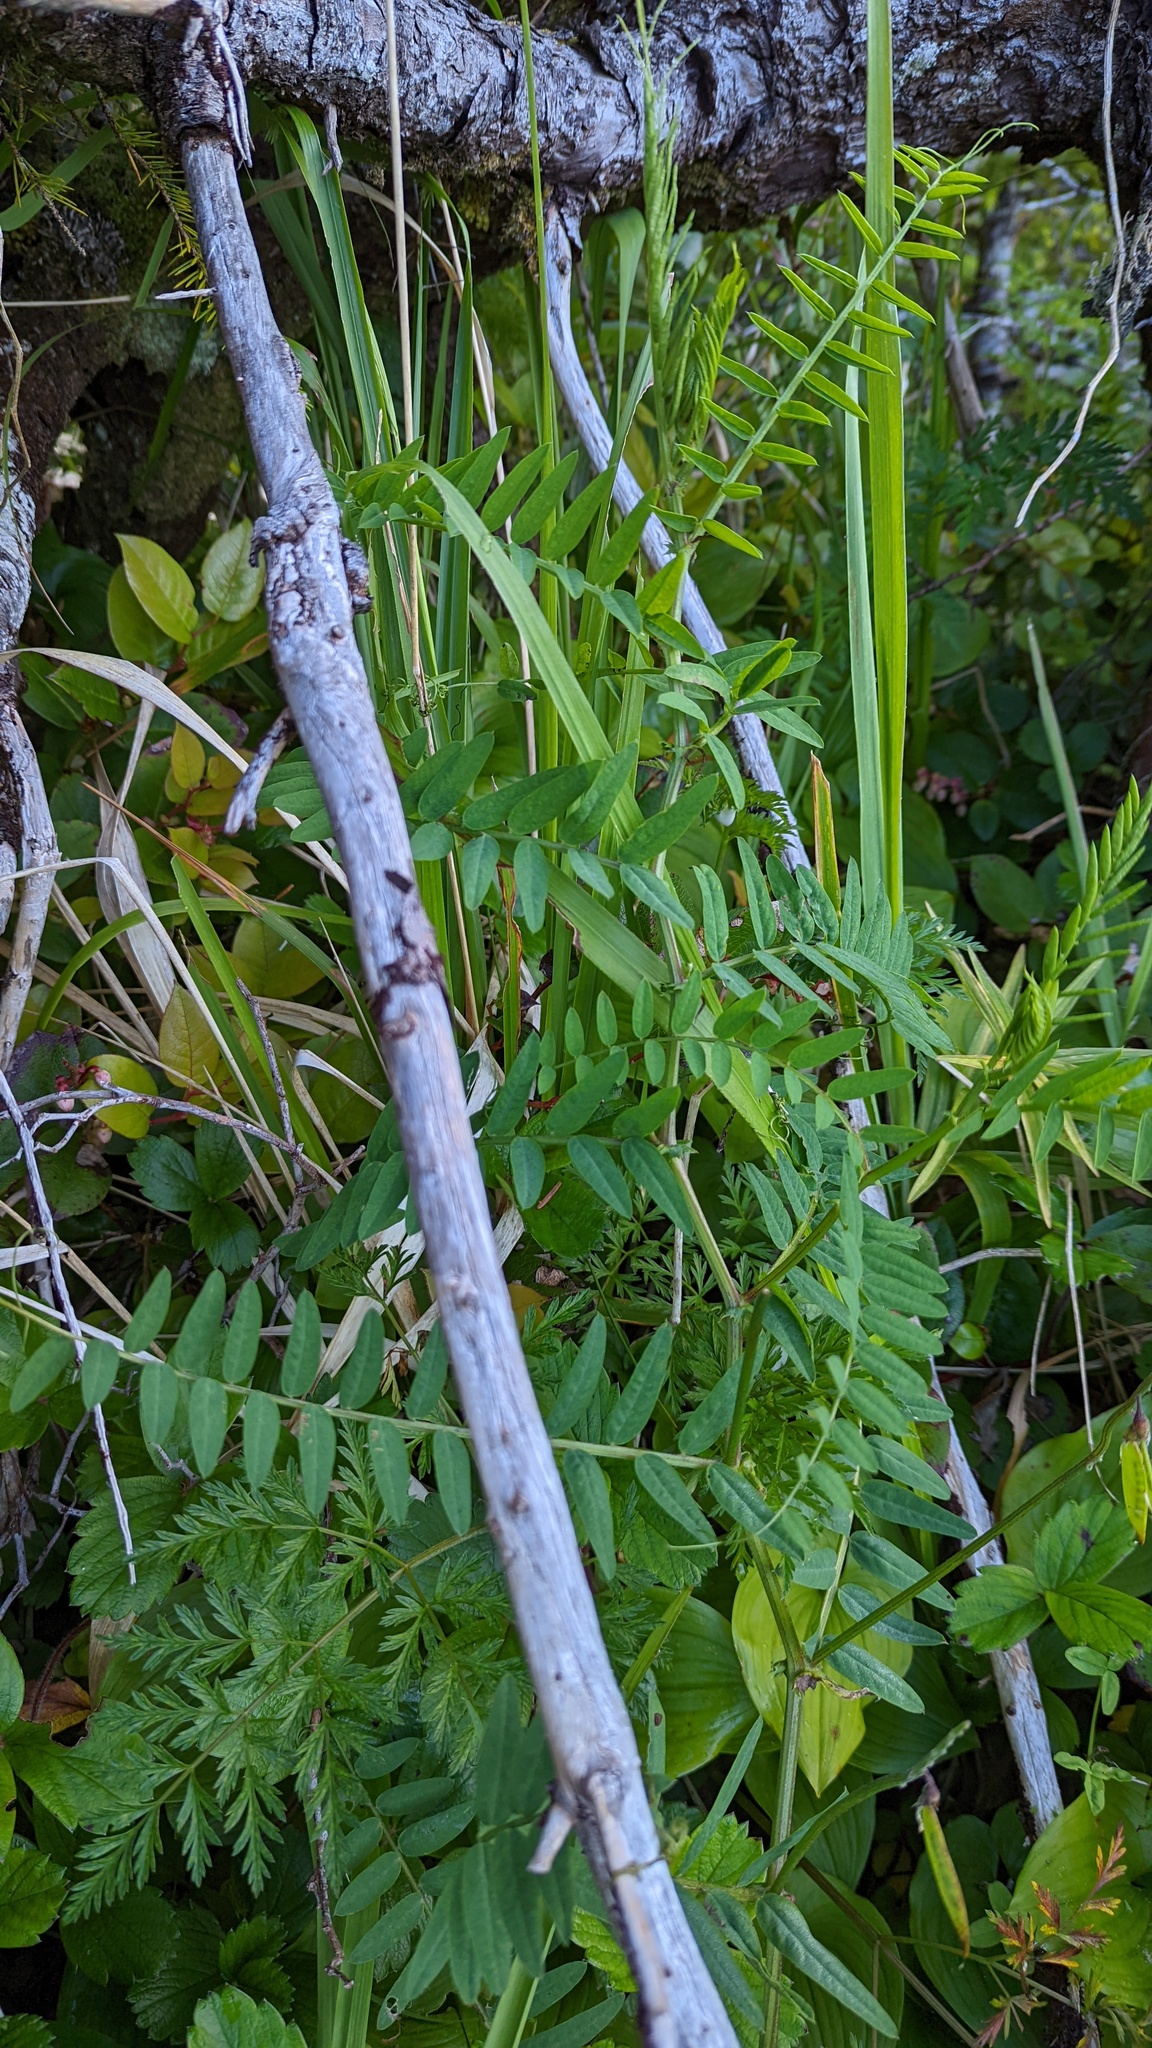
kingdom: Plantae
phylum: Tracheophyta
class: Magnoliopsida
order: Fabales
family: Fabaceae
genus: Vicia
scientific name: Vicia
